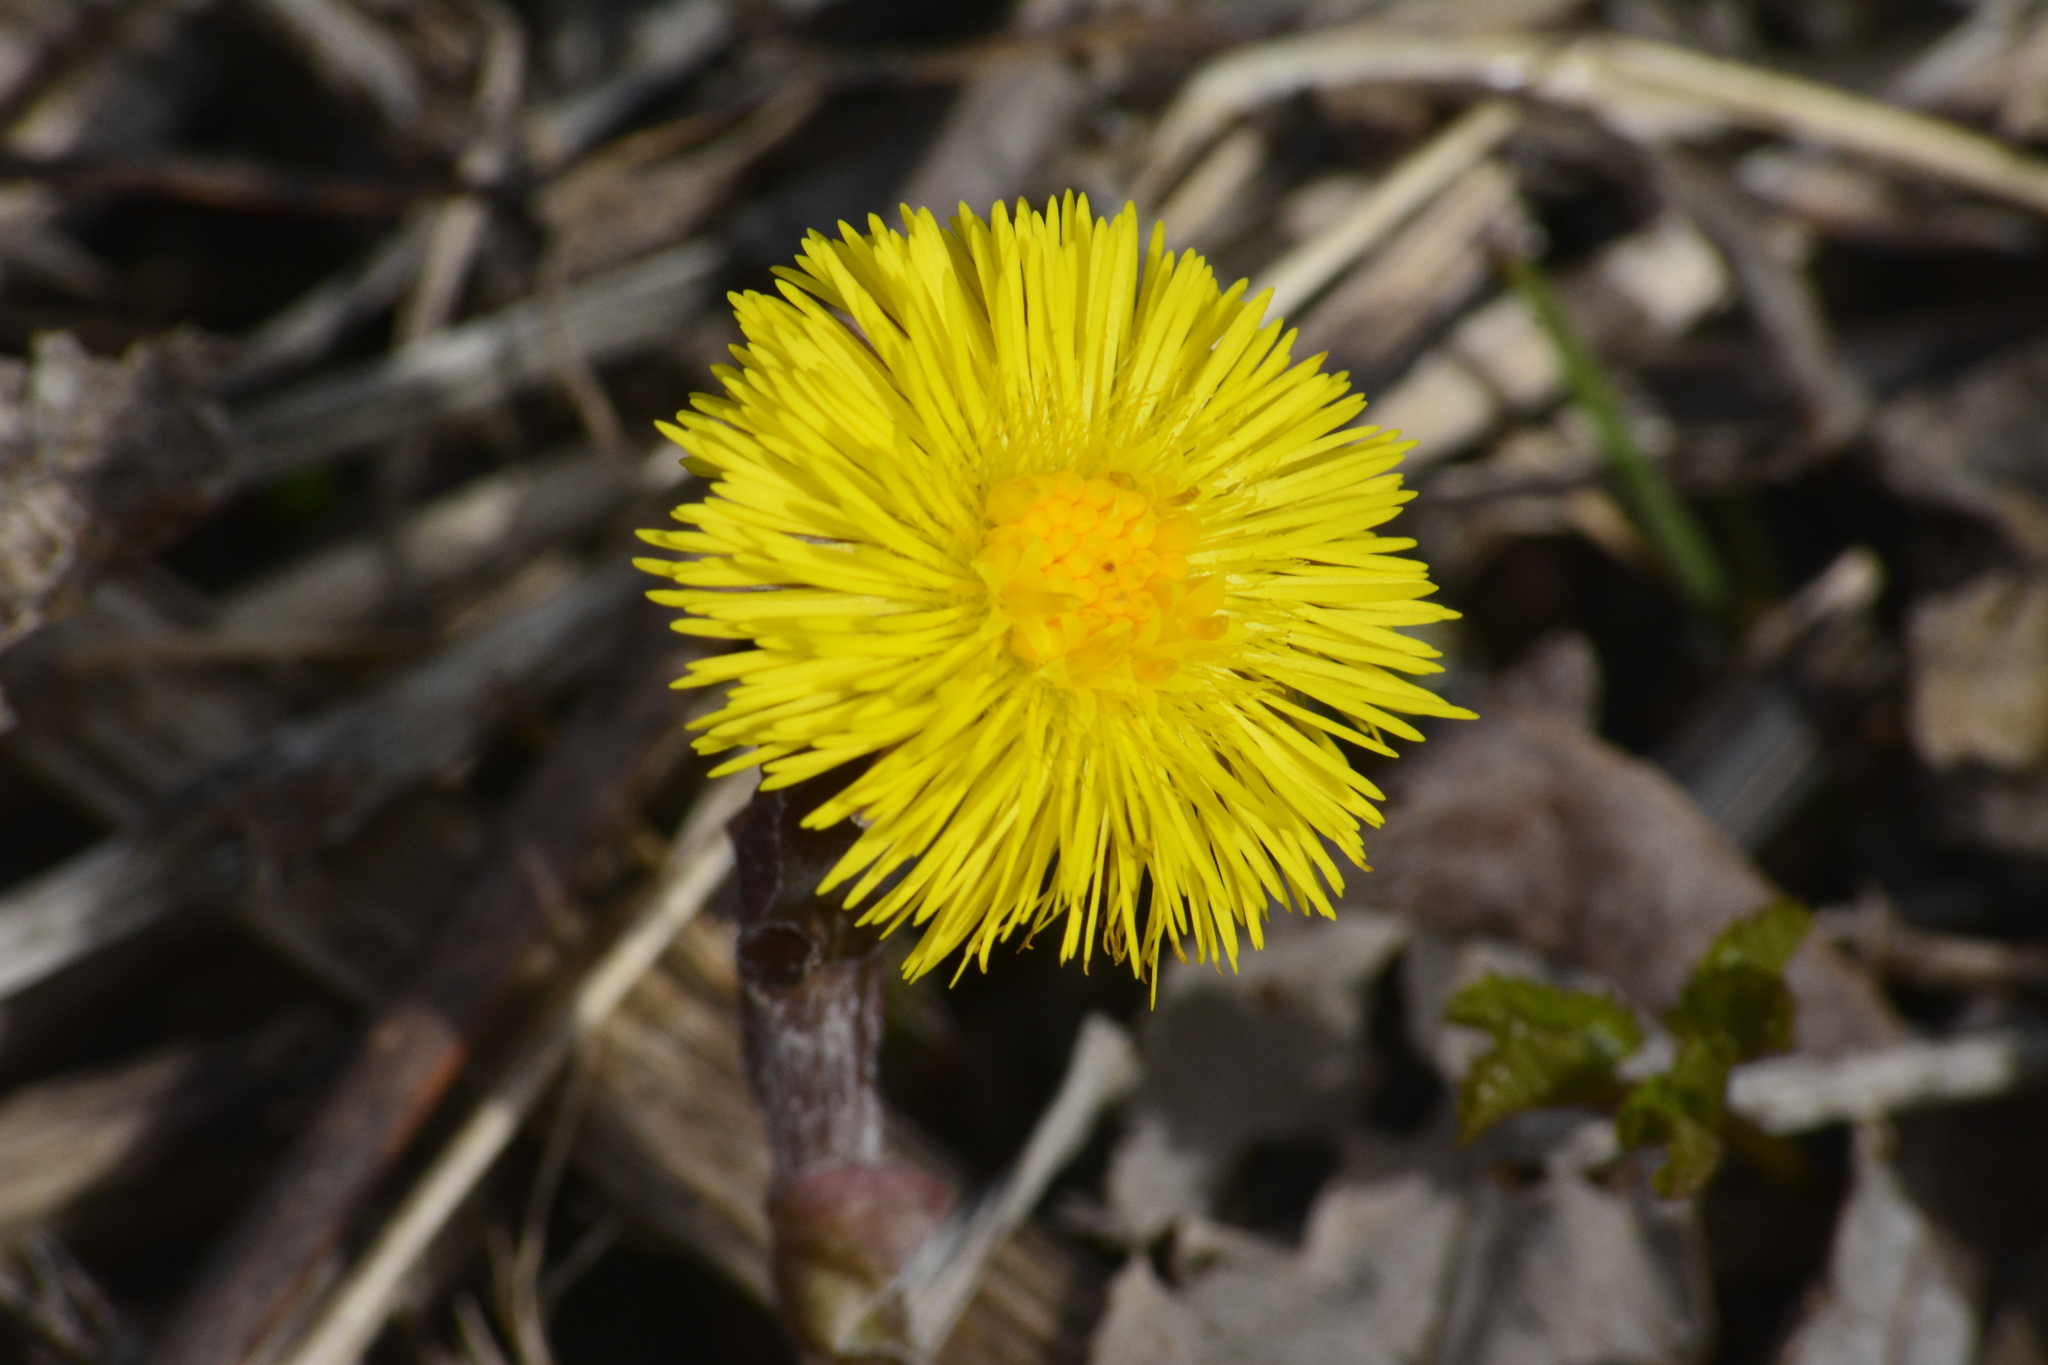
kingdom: Plantae
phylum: Tracheophyta
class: Magnoliopsida
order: Asterales
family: Asteraceae
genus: Tussilago
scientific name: Tussilago farfara
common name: Coltsfoot
